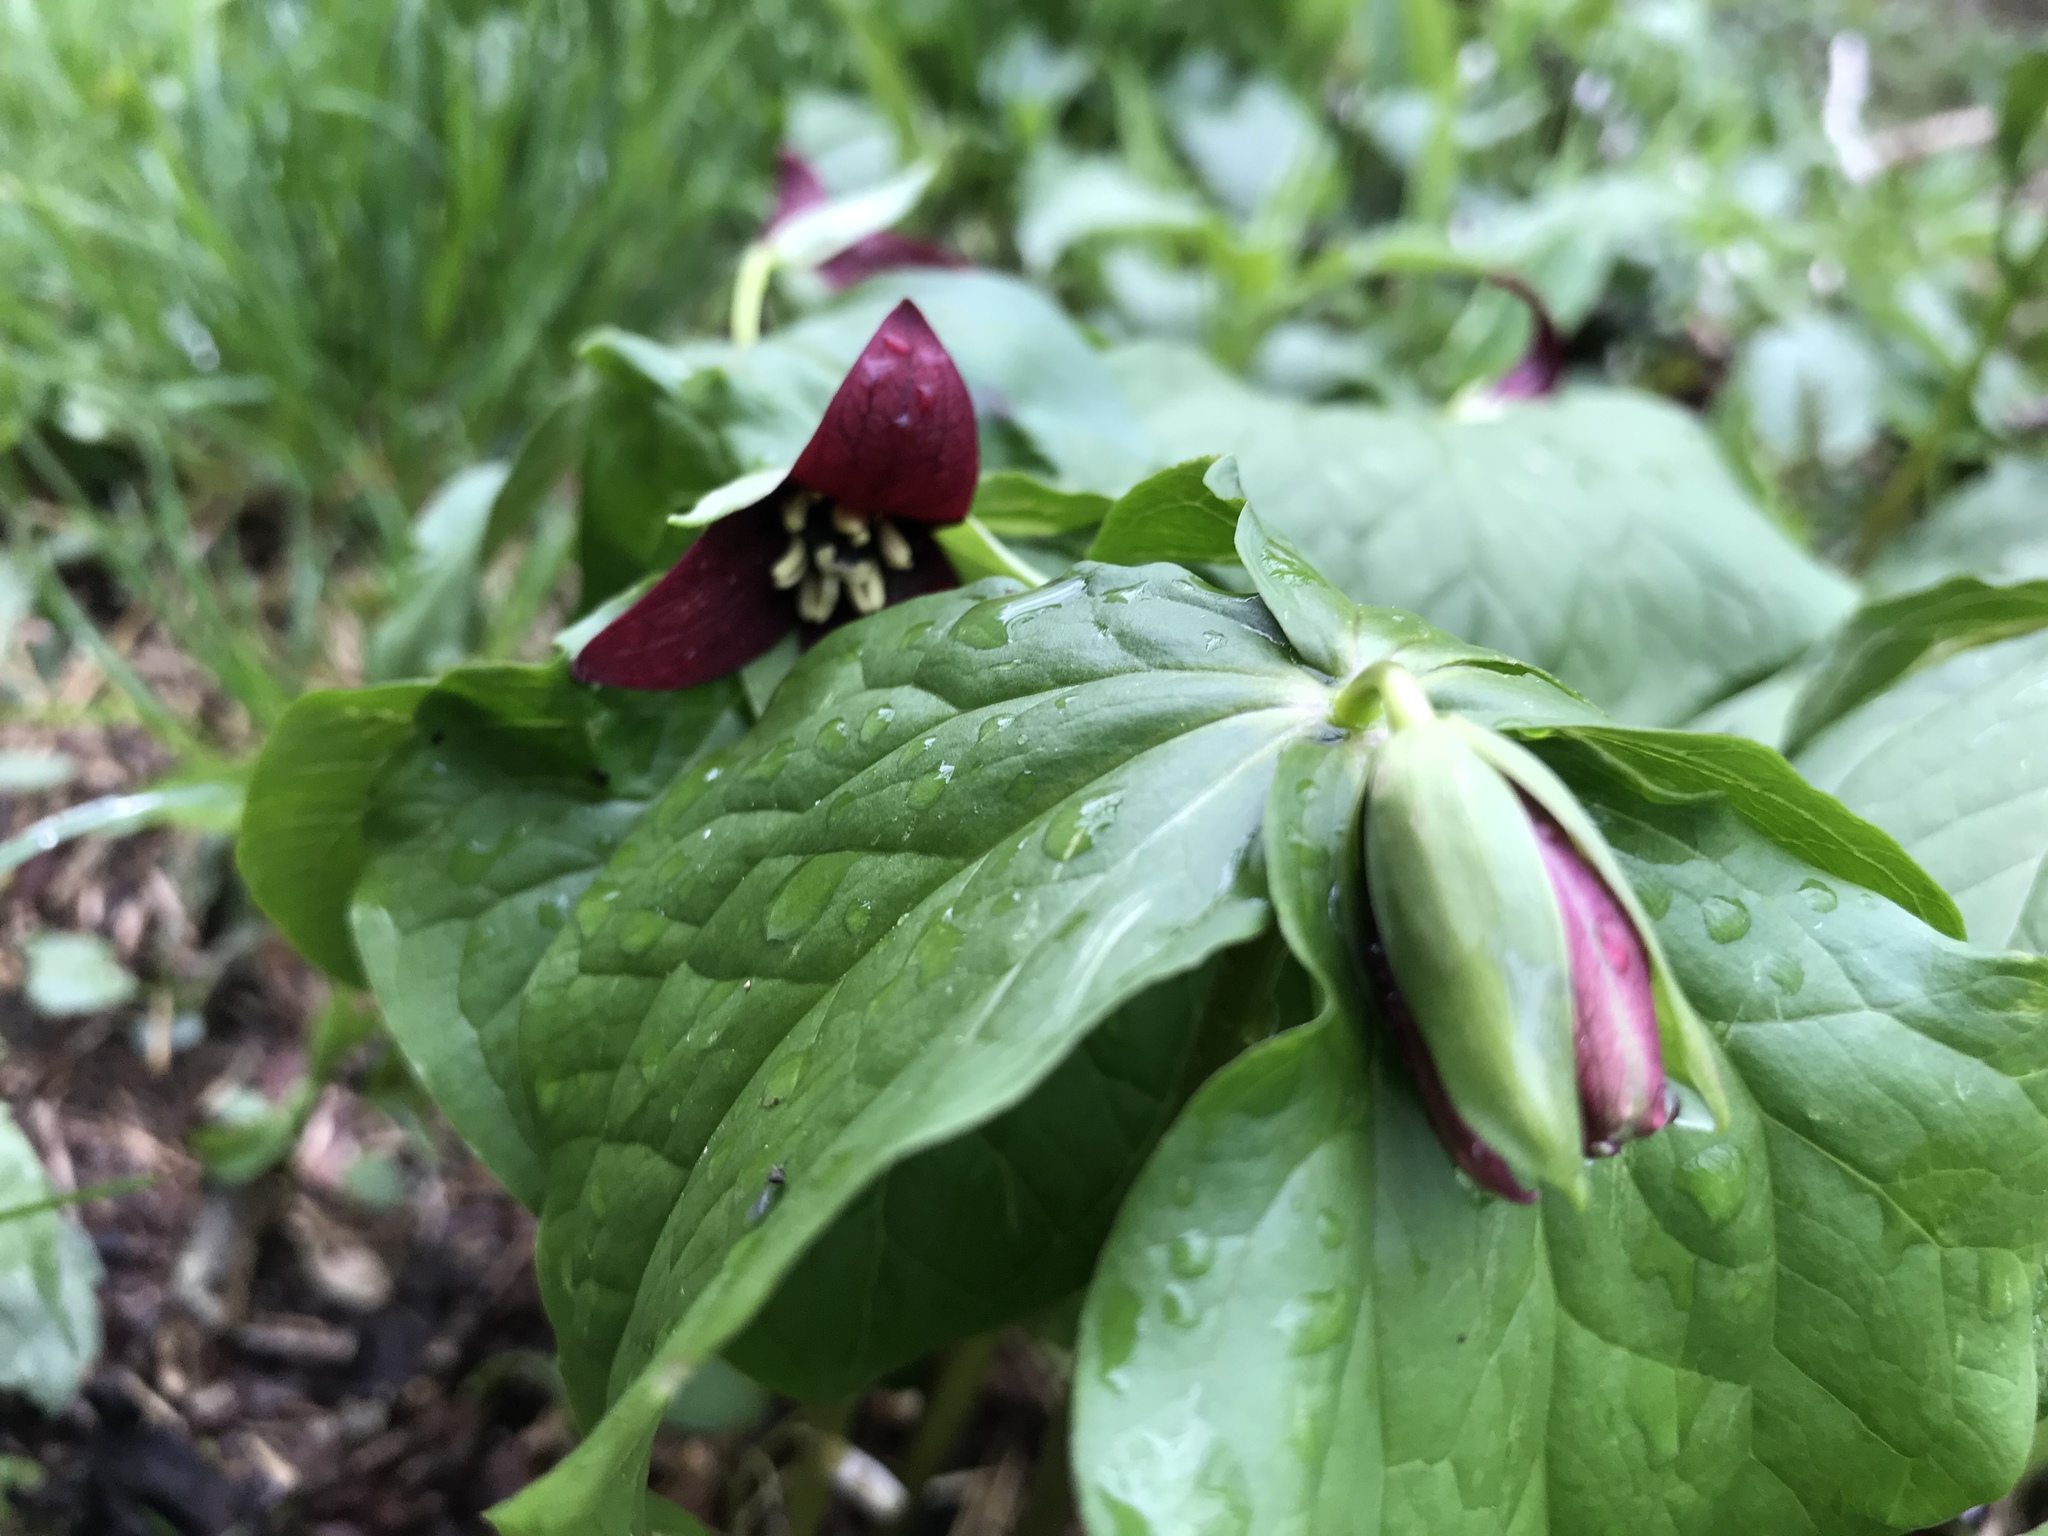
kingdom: Plantae
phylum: Tracheophyta
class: Liliopsida
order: Liliales
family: Melanthiaceae
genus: Trillium
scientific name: Trillium erectum
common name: Purple trillium
